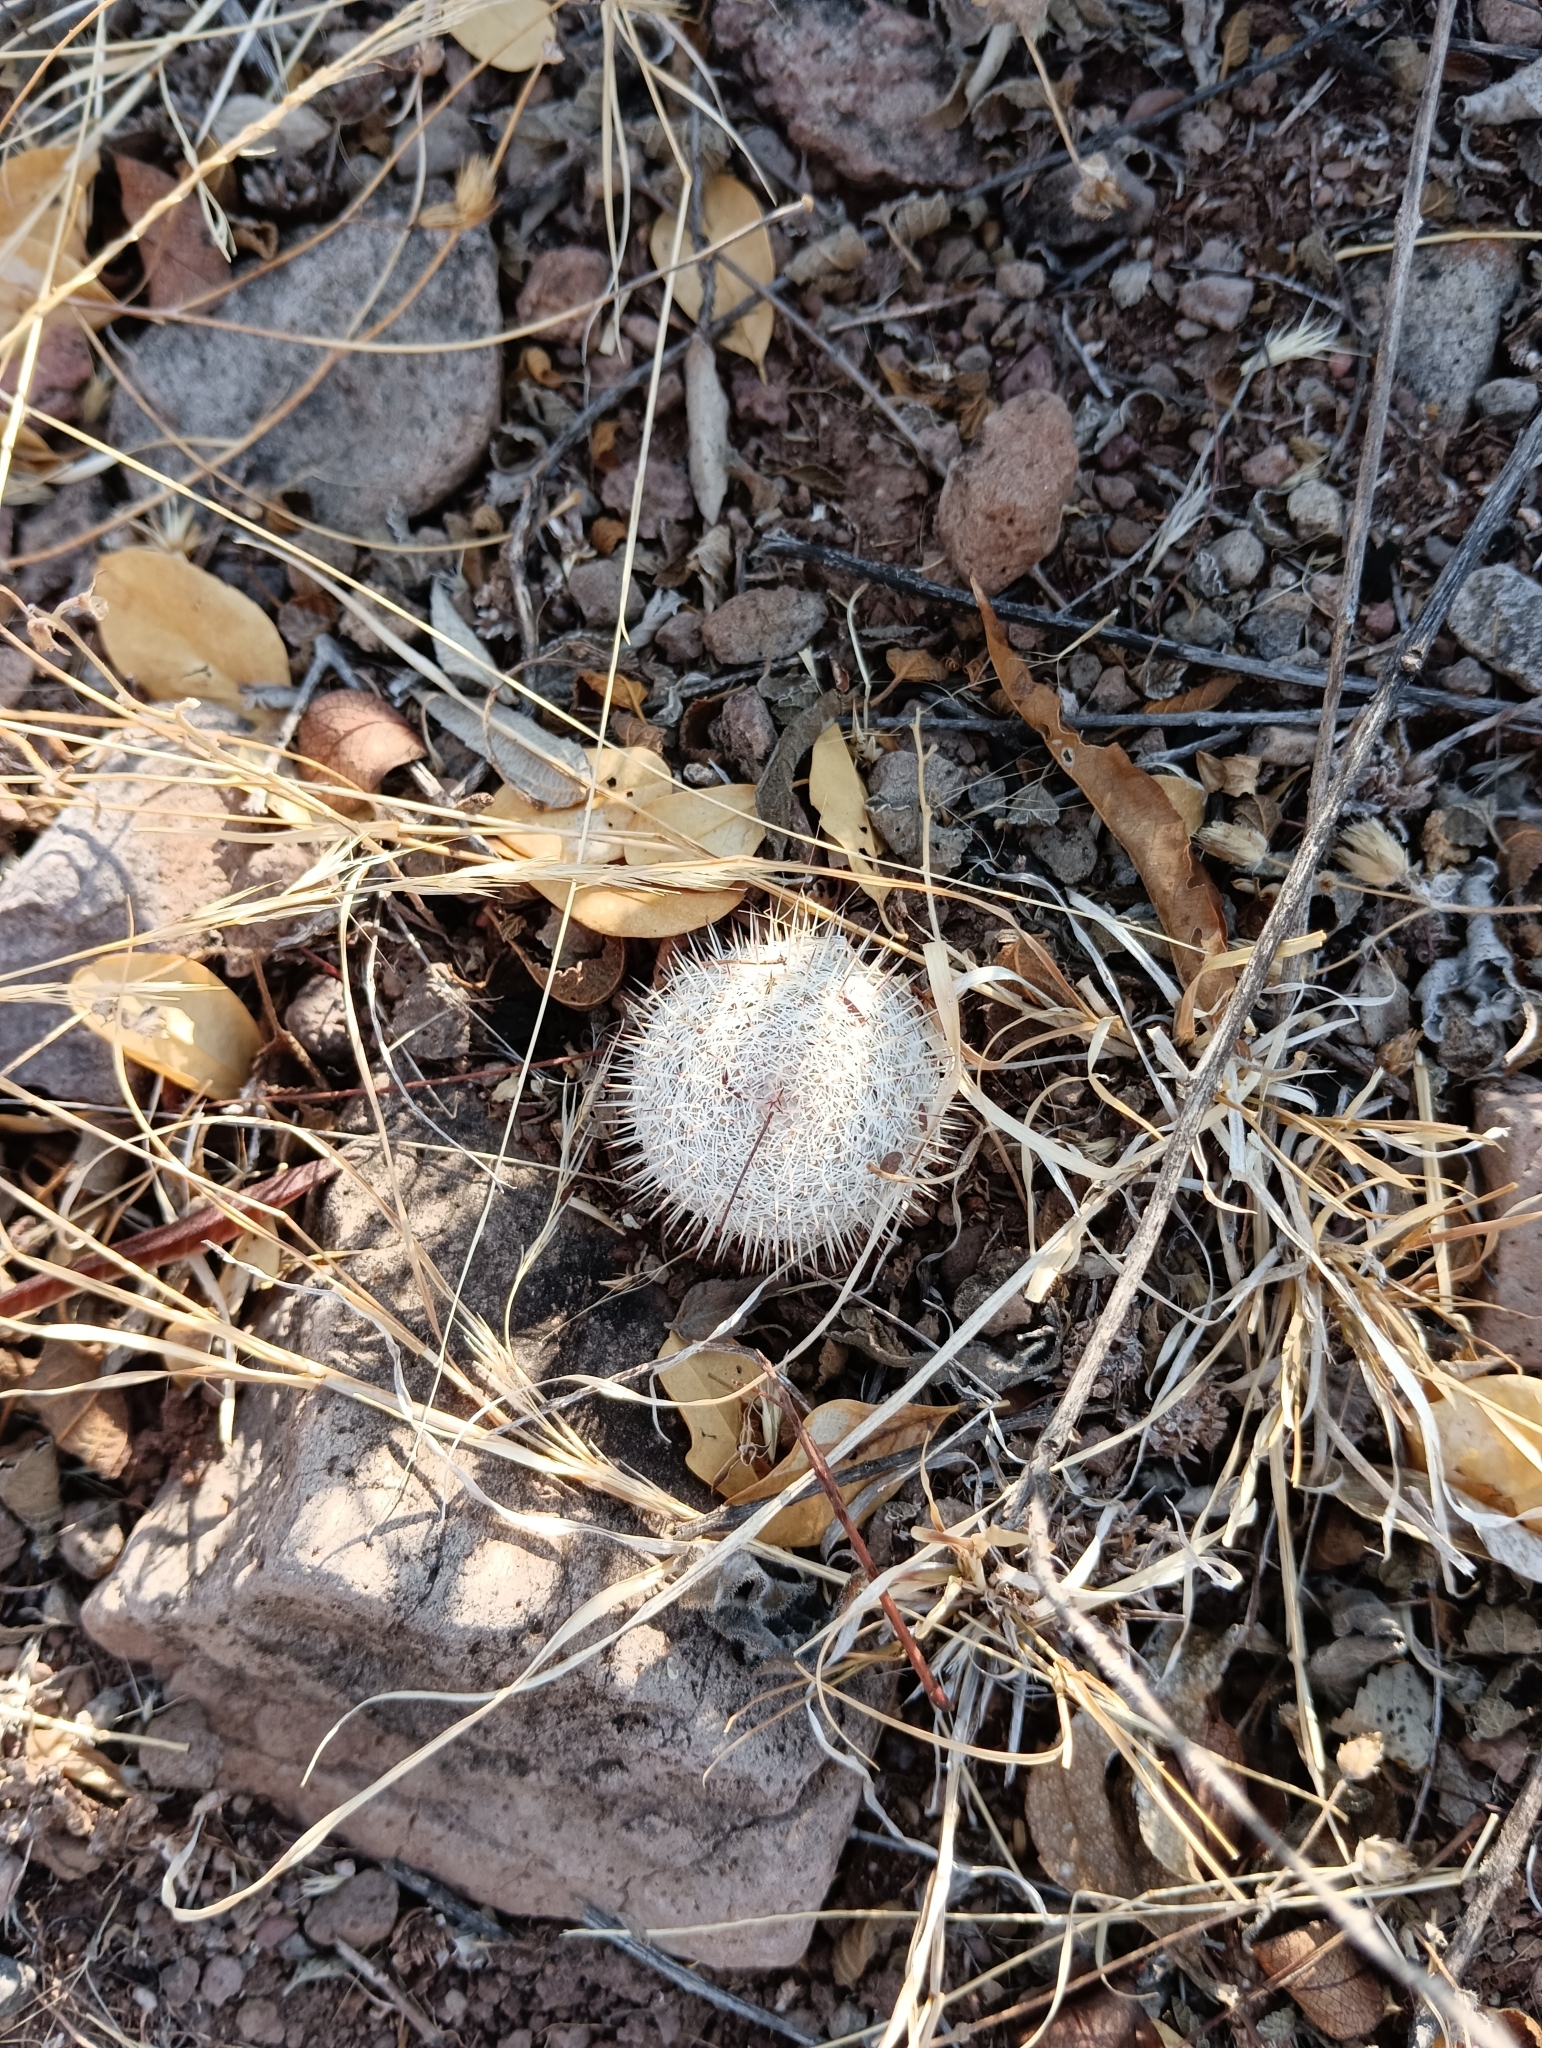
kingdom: Plantae
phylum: Tracheophyta
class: Magnoliopsida
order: Caryophyllales
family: Cactaceae
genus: Mammillaria
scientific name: Mammillaria haageana
